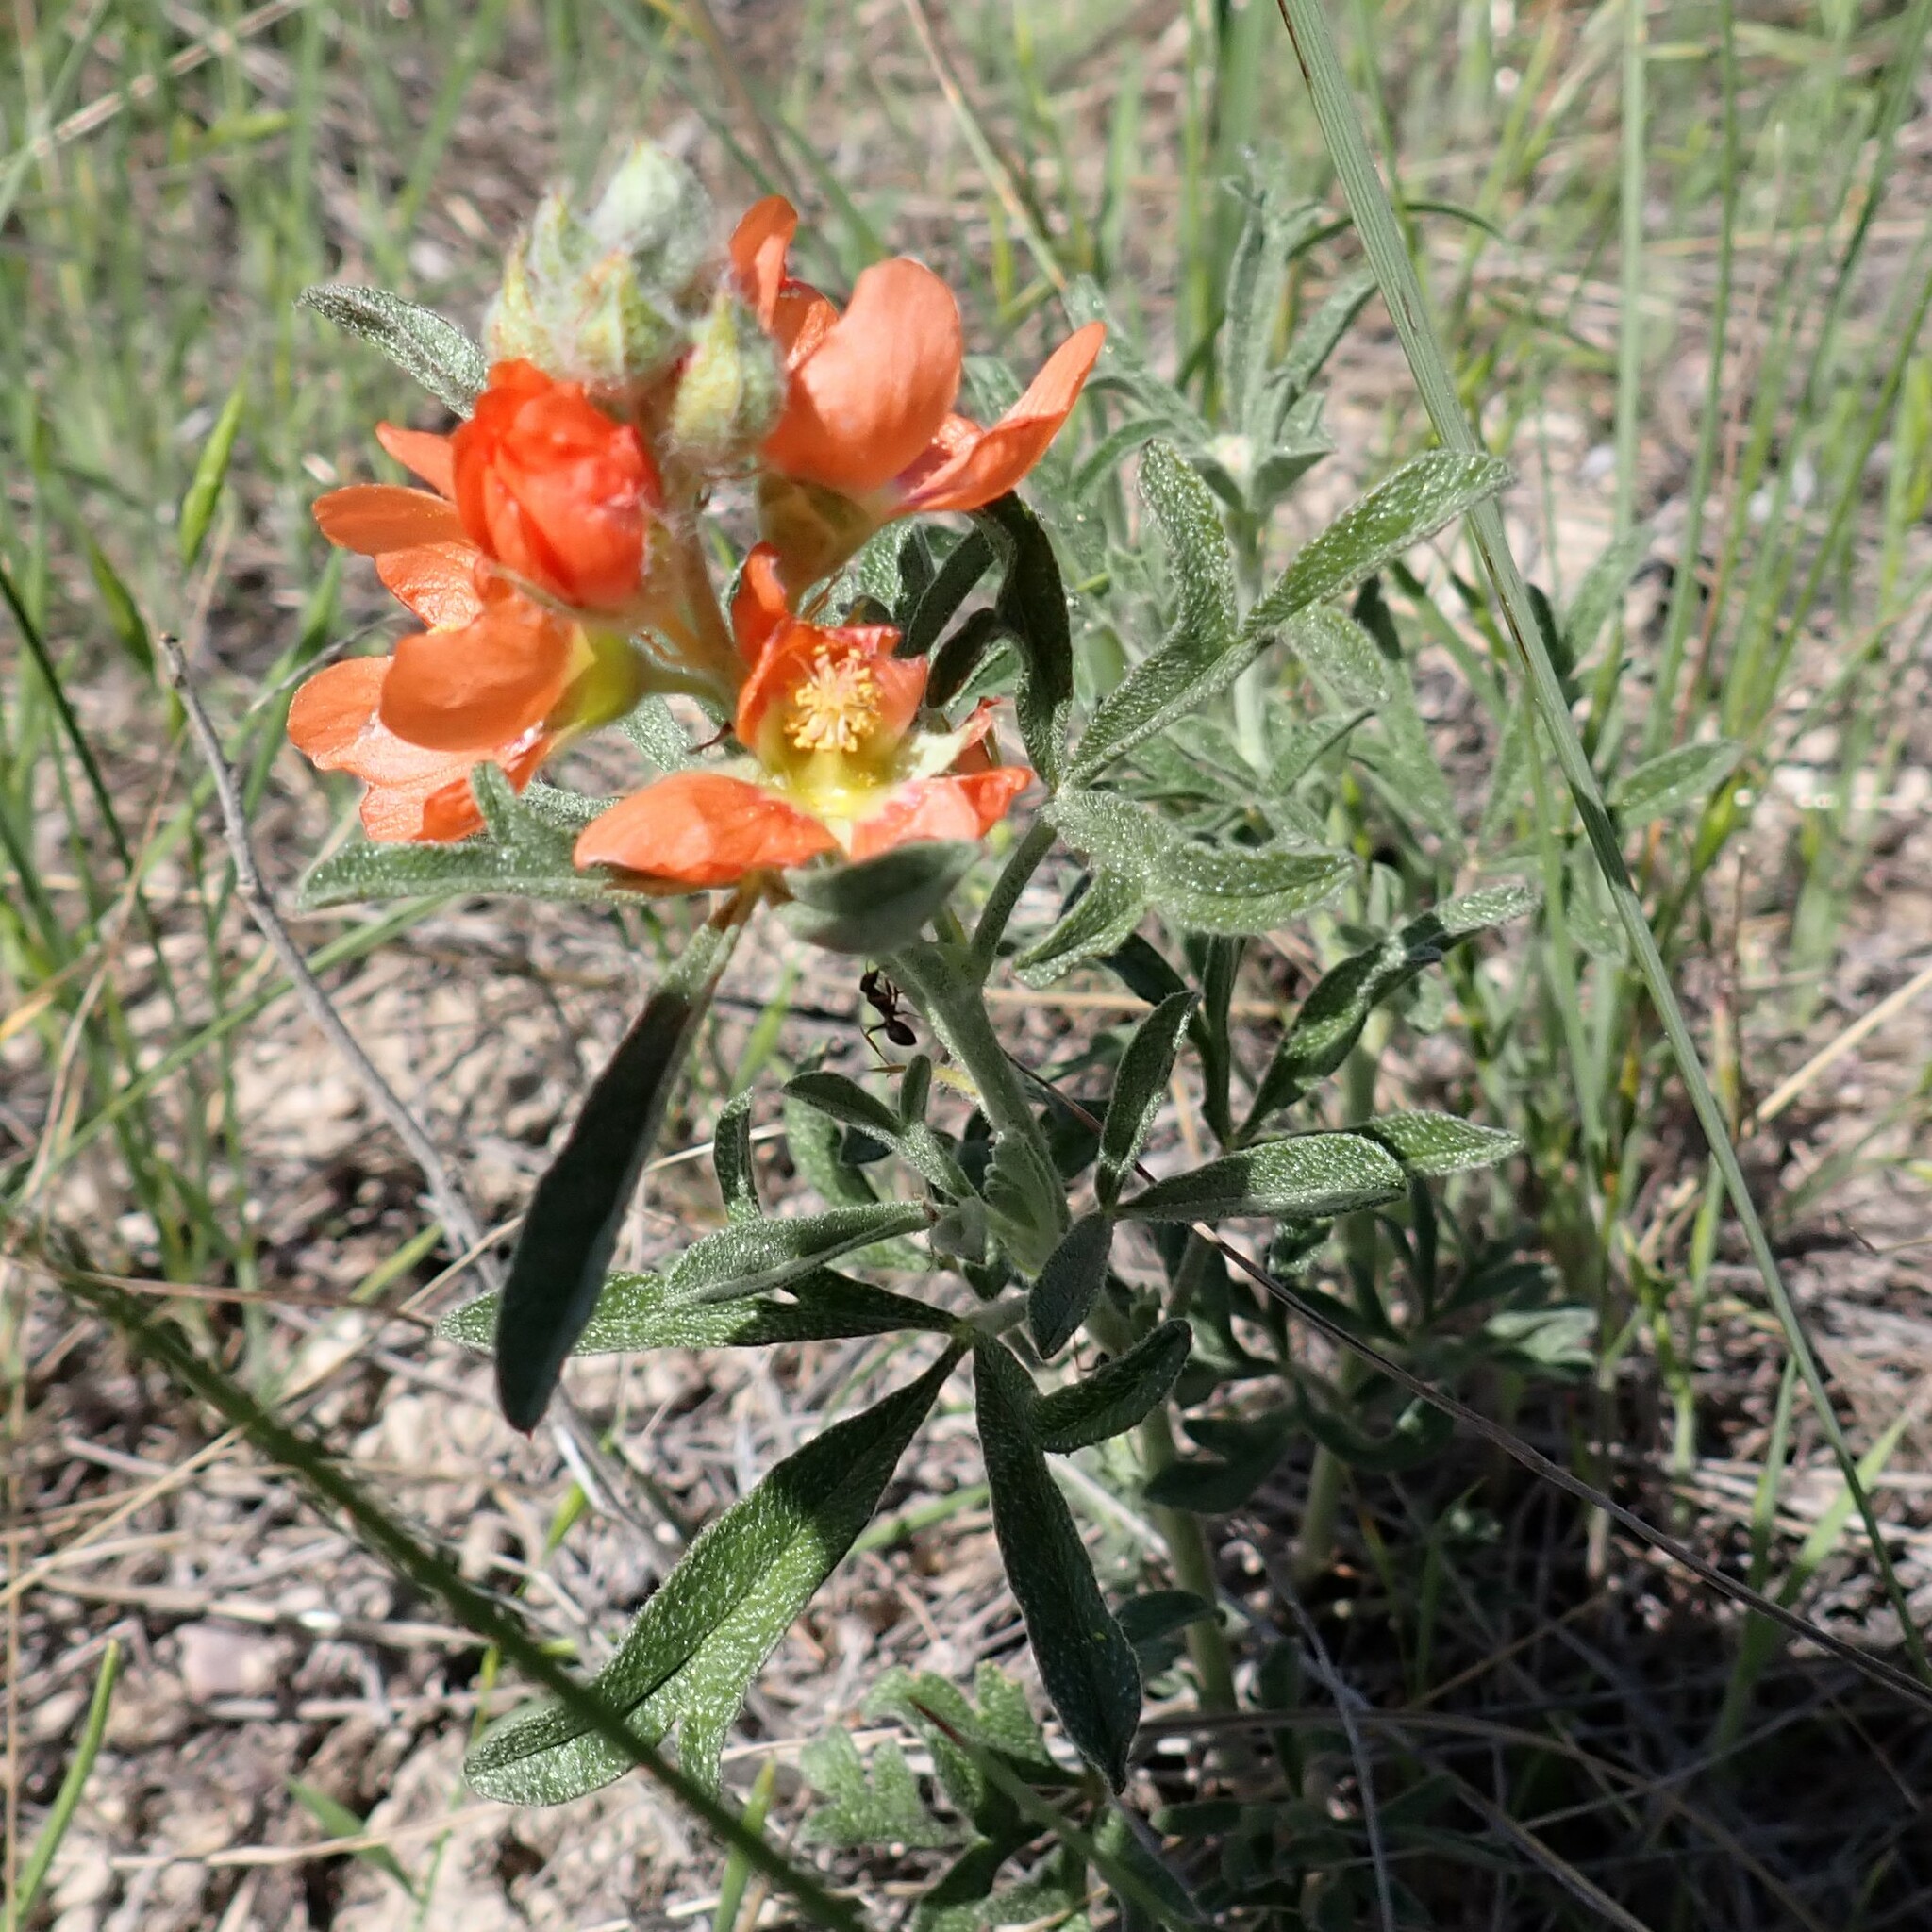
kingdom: Plantae
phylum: Tracheophyta
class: Magnoliopsida
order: Malvales
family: Malvaceae
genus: Sphaeralcea
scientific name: Sphaeralcea coccinea
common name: Moss-rose
